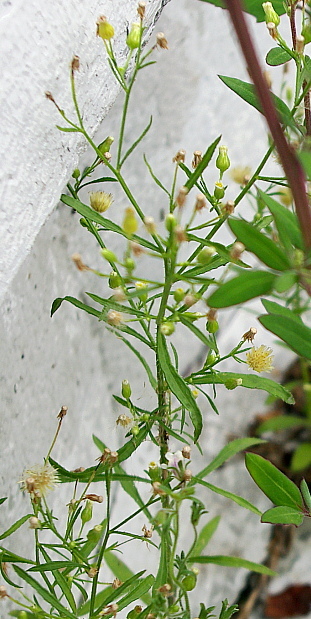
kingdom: Plantae
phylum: Tracheophyta
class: Magnoliopsida
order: Asterales
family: Asteraceae
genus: Erigeron
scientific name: Erigeron canadensis
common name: Canadian fleabane
